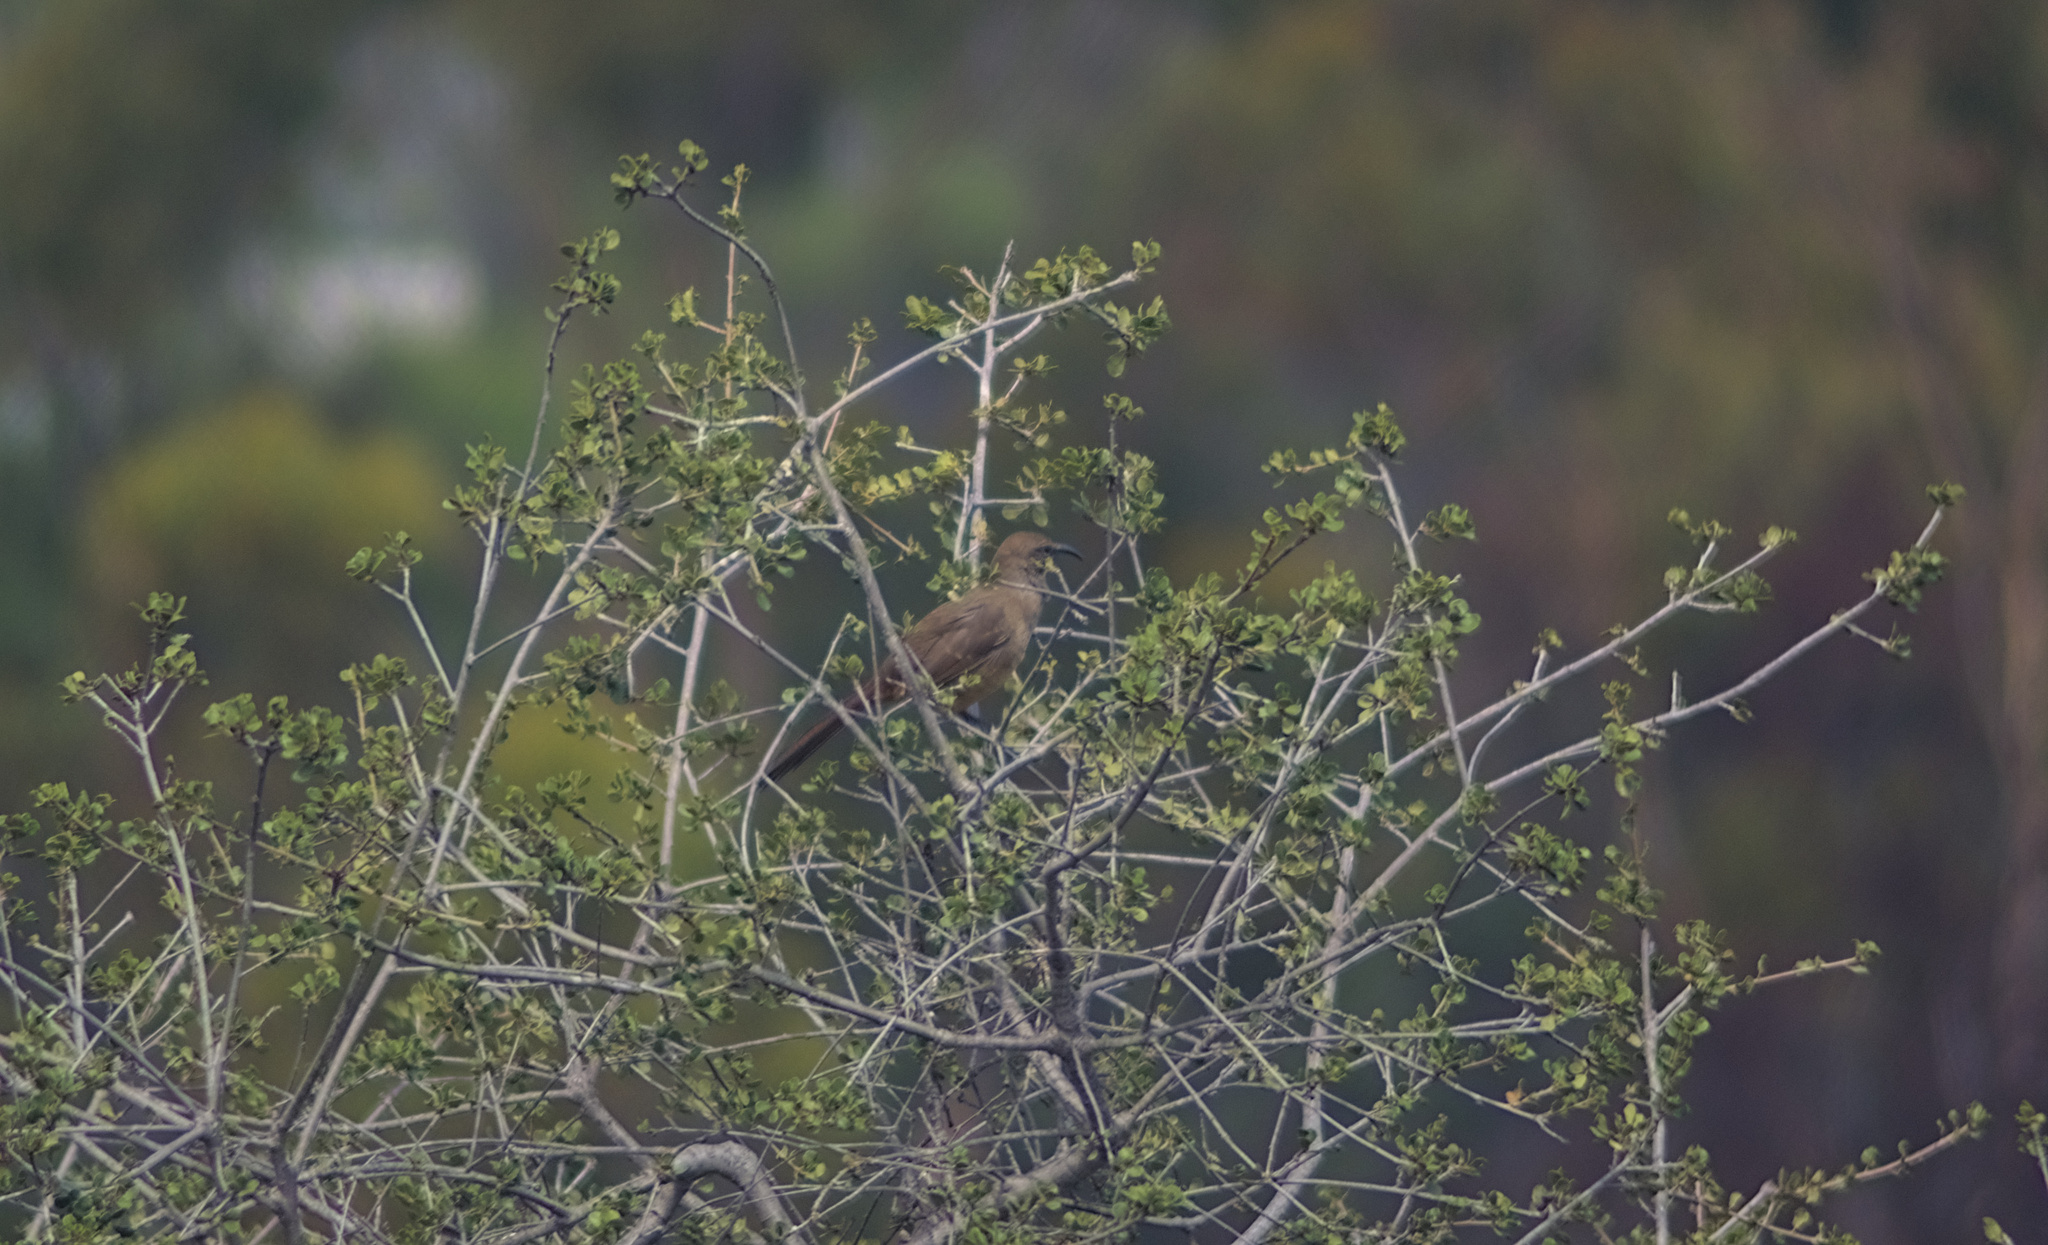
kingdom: Animalia
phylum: Chordata
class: Aves
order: Passeriformes
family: Mimidae
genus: Toxostoma
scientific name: Toxostoma redivivum
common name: California thrasher
